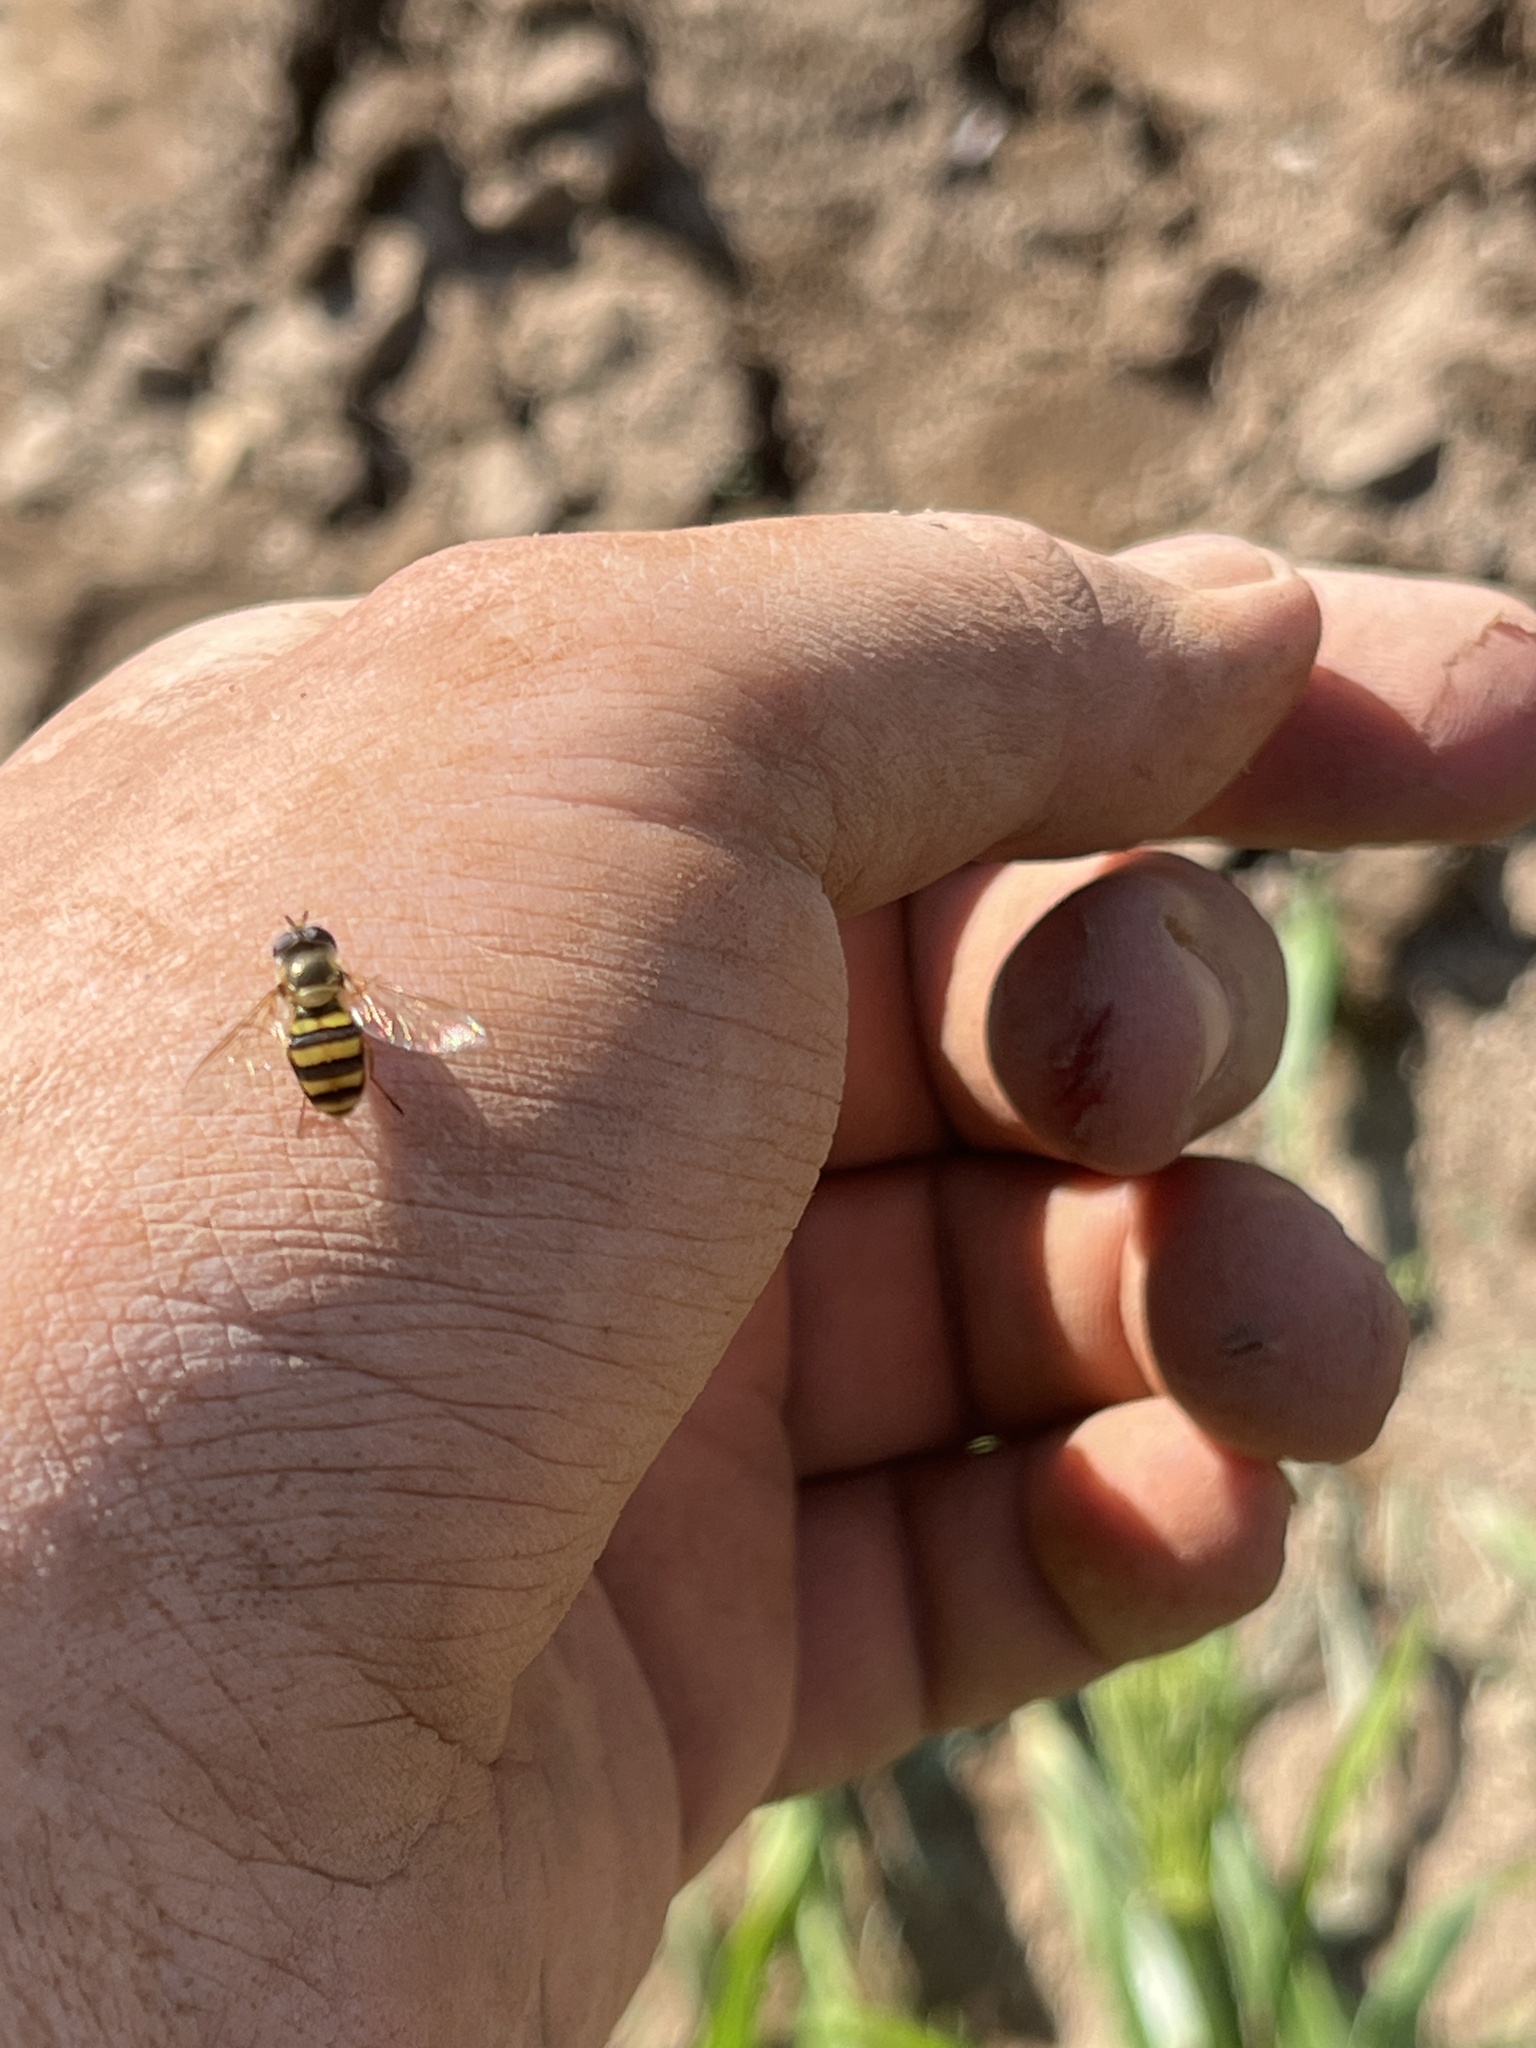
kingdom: Animalia
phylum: Arthropoda
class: Insecta
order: Diptera
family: Syrphidae
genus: Eupeodes
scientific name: Eupeodes
